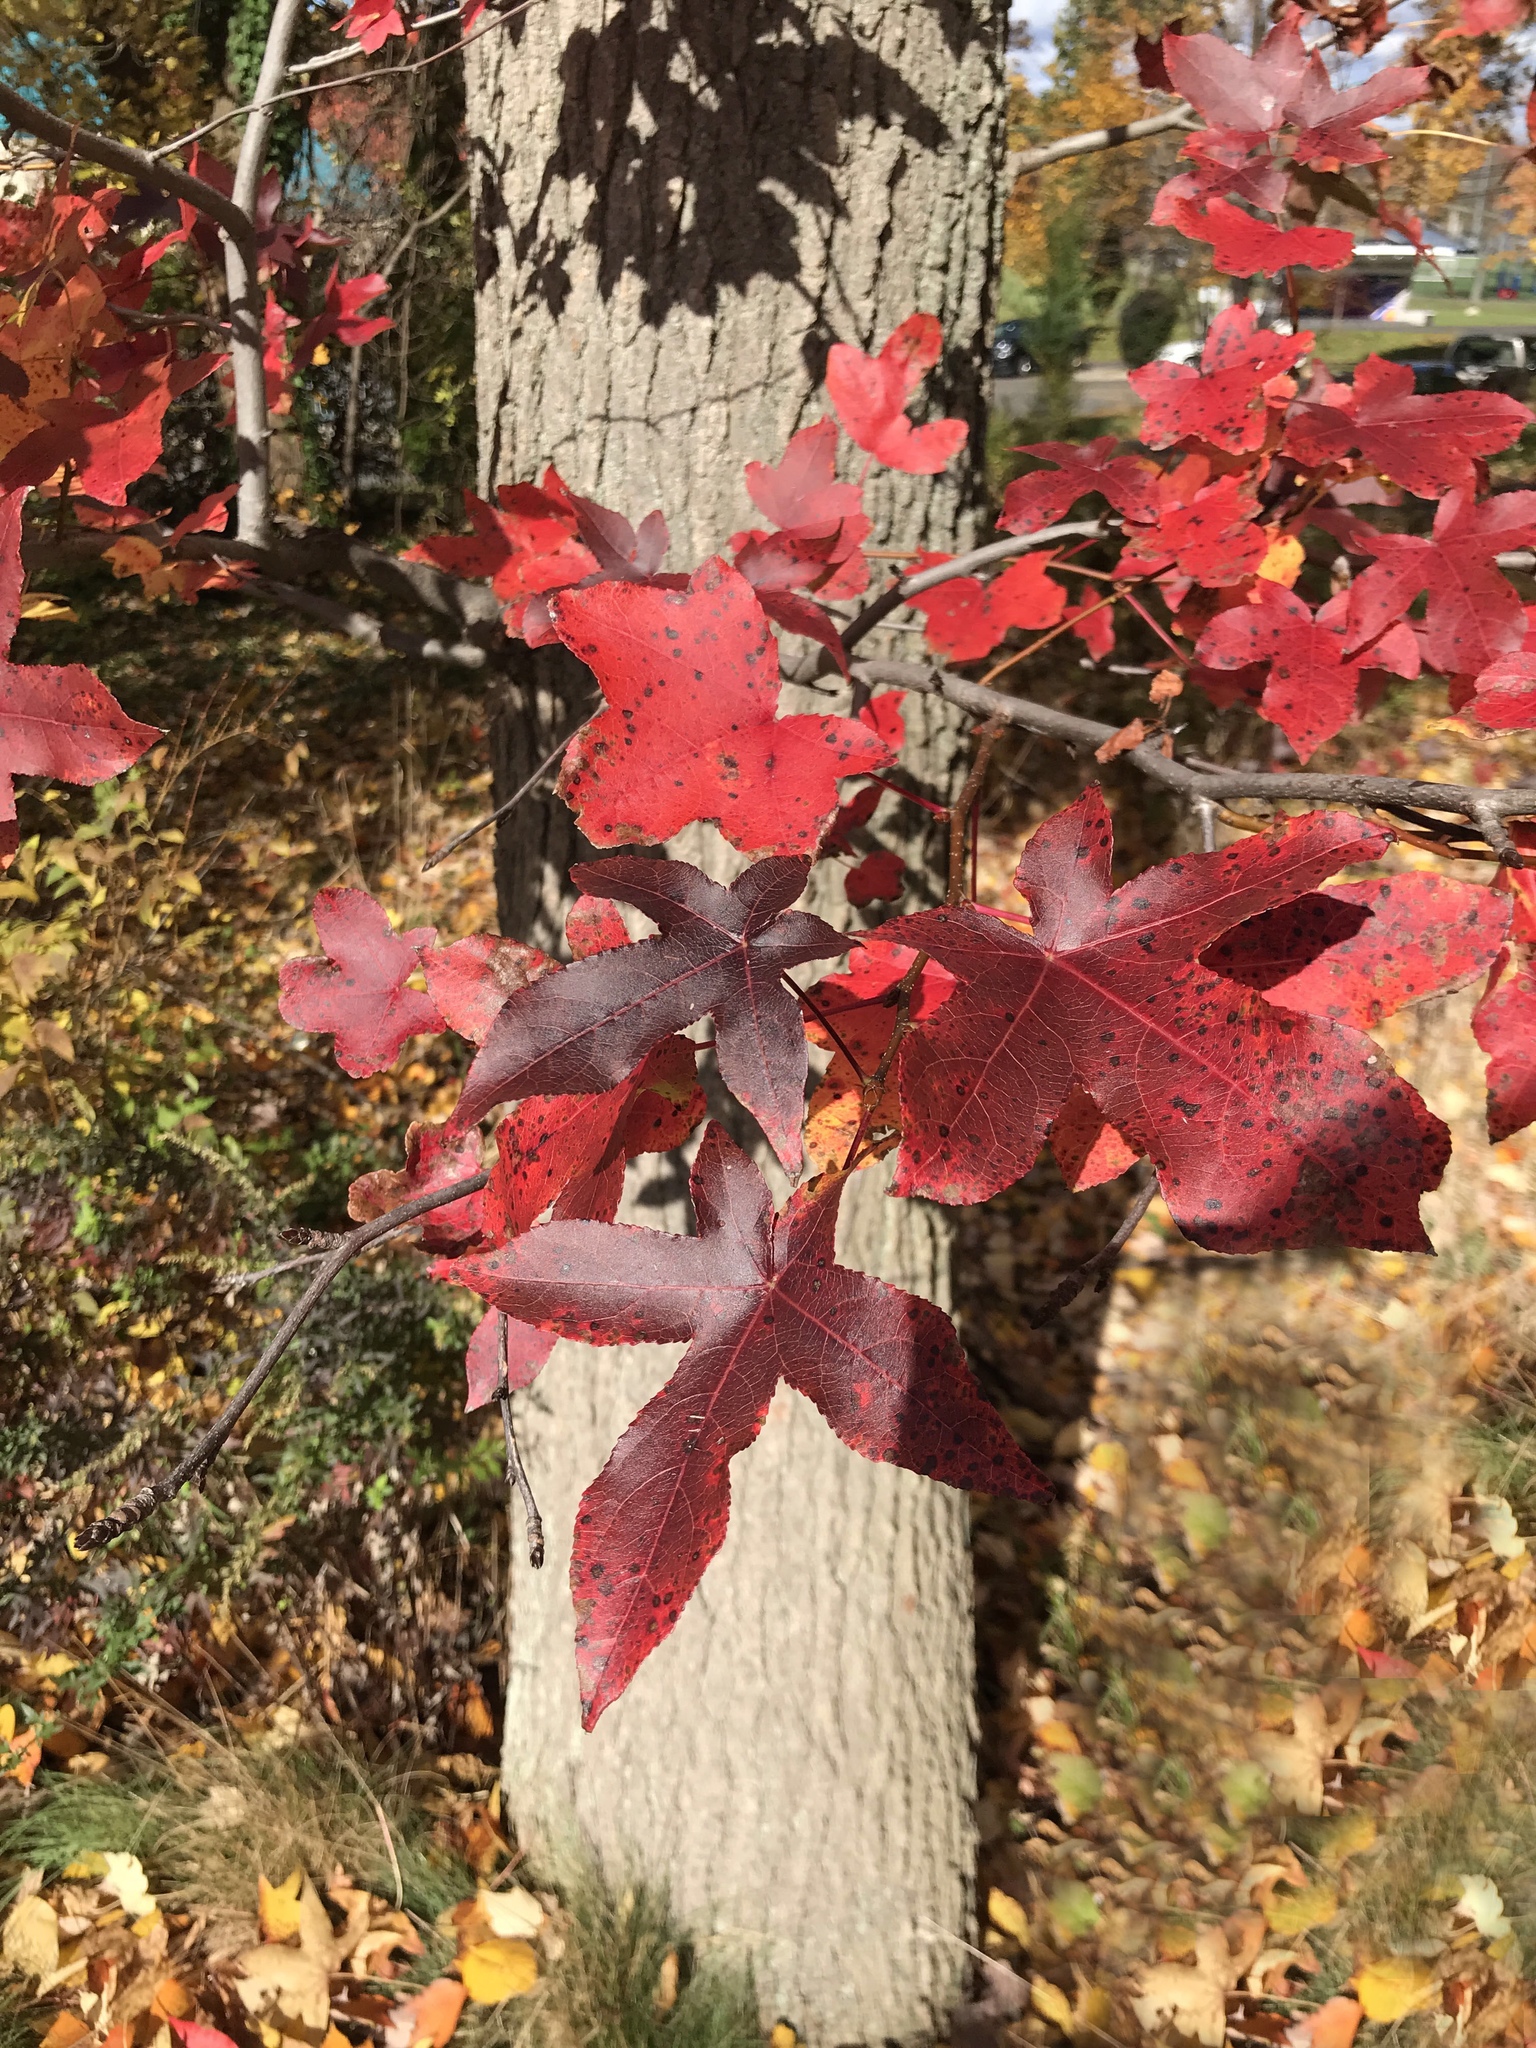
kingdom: Plantae
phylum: Tracheophyta
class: Magnoliopsida
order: Saxifragales
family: Altingiaceae
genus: Liquidambar
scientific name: Liquidambar styraciflua
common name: Sweet gum
